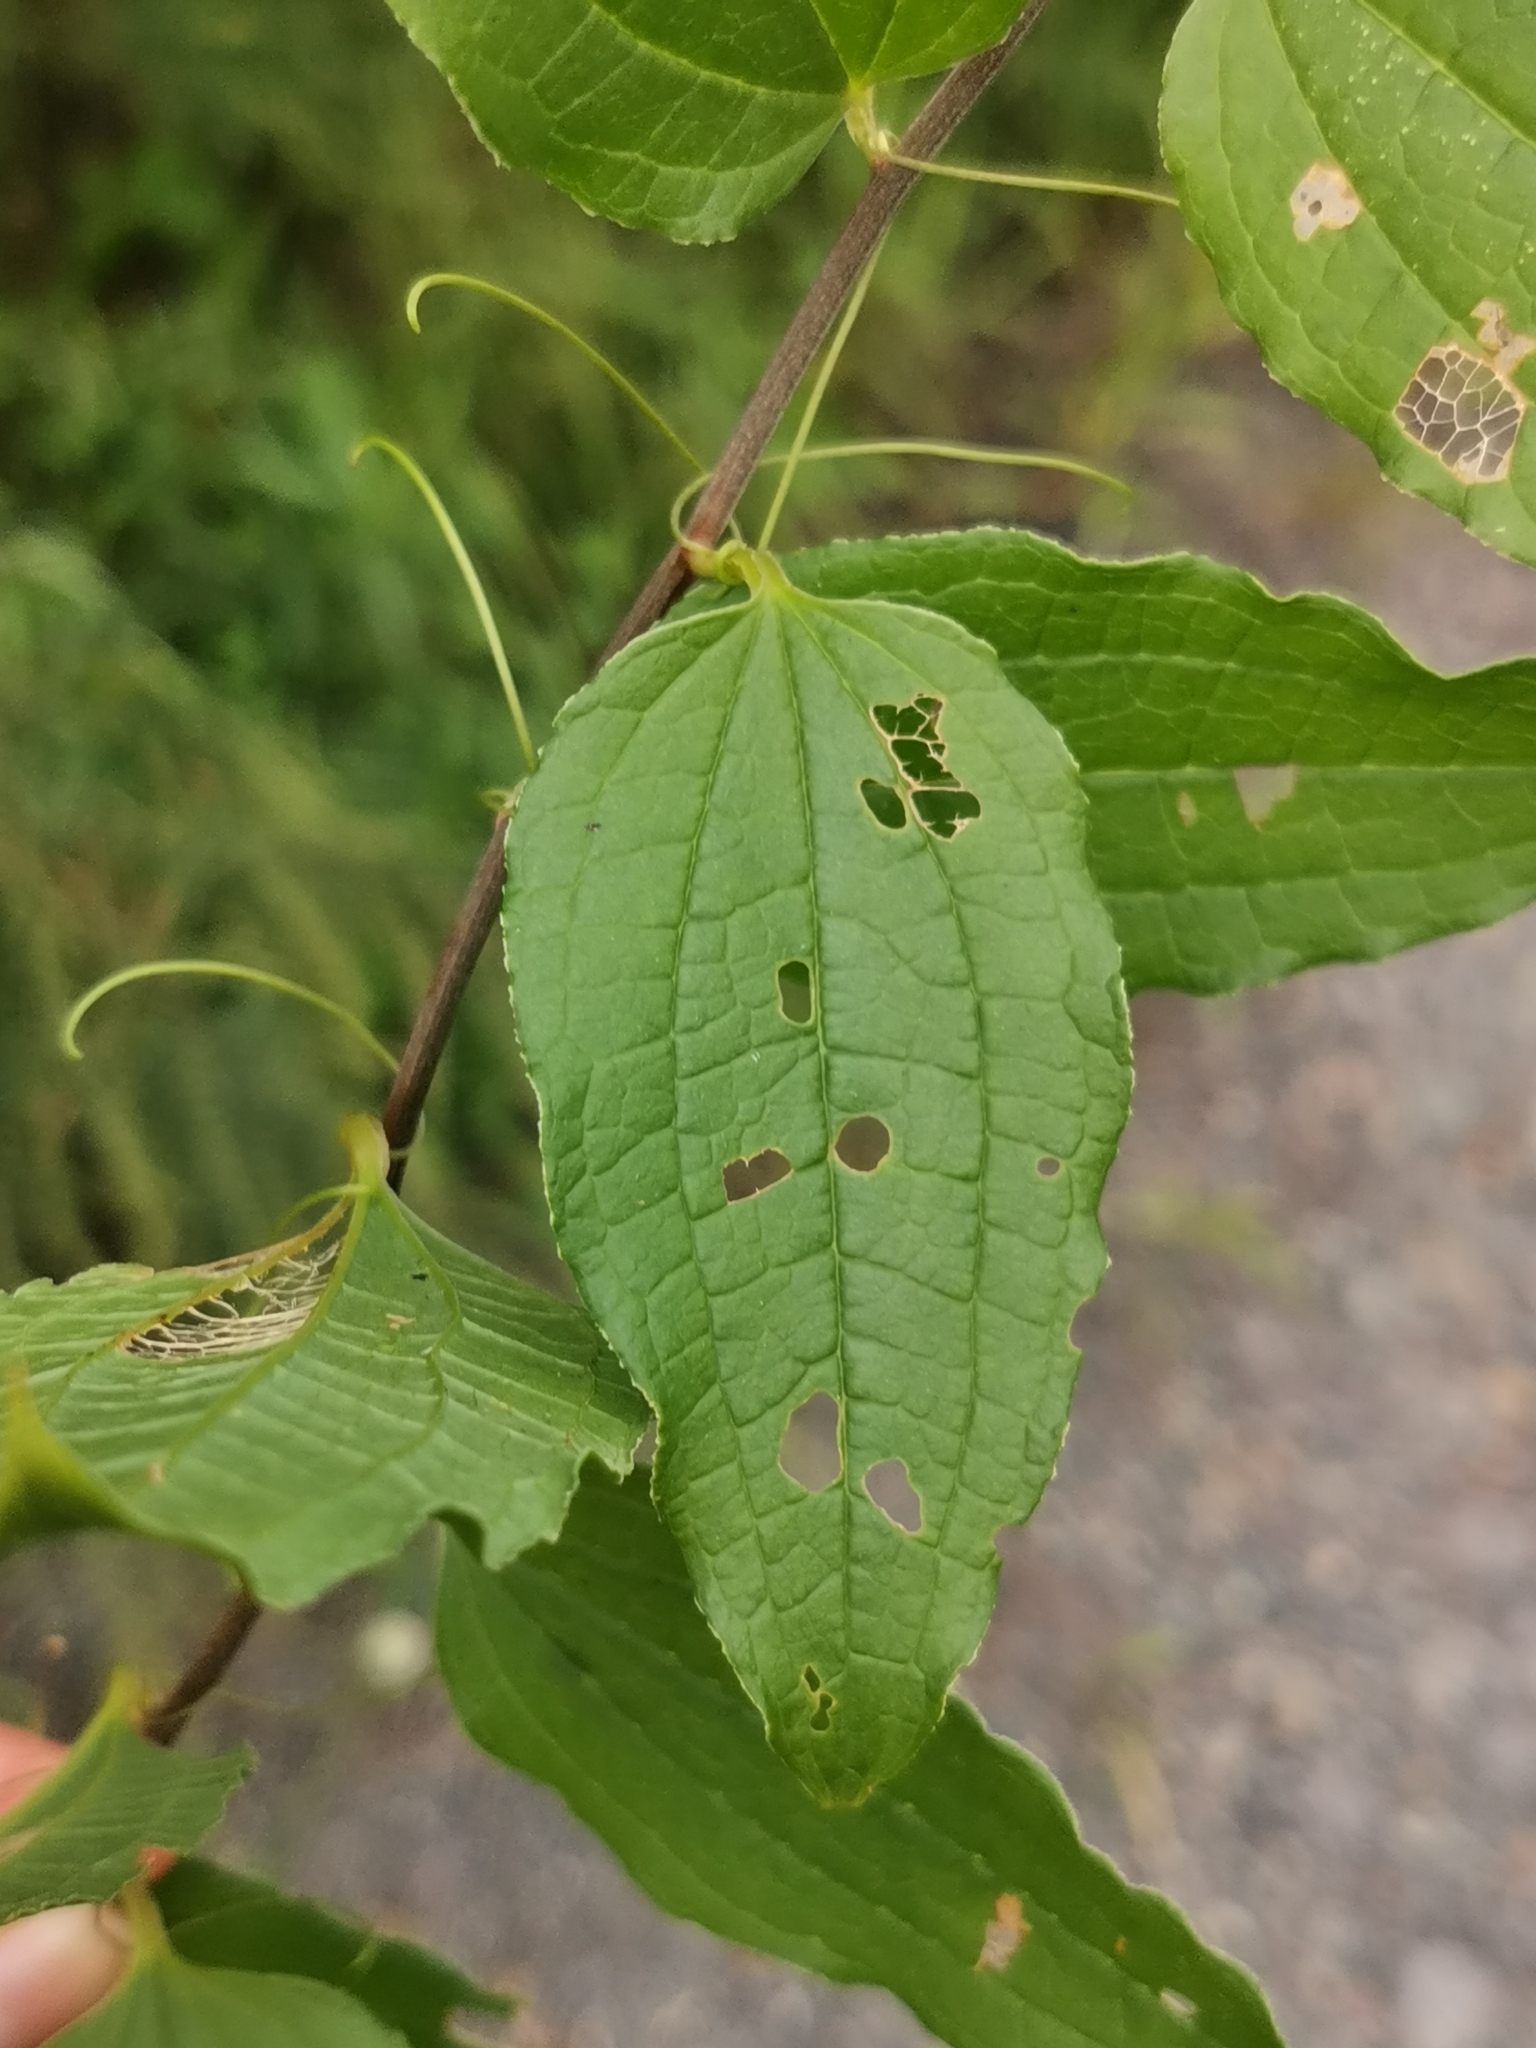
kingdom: Plantae
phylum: Tracheophyta
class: Liliopsida
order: Liliales
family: Smilacaceae
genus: Smilax
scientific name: Smilax riparia
